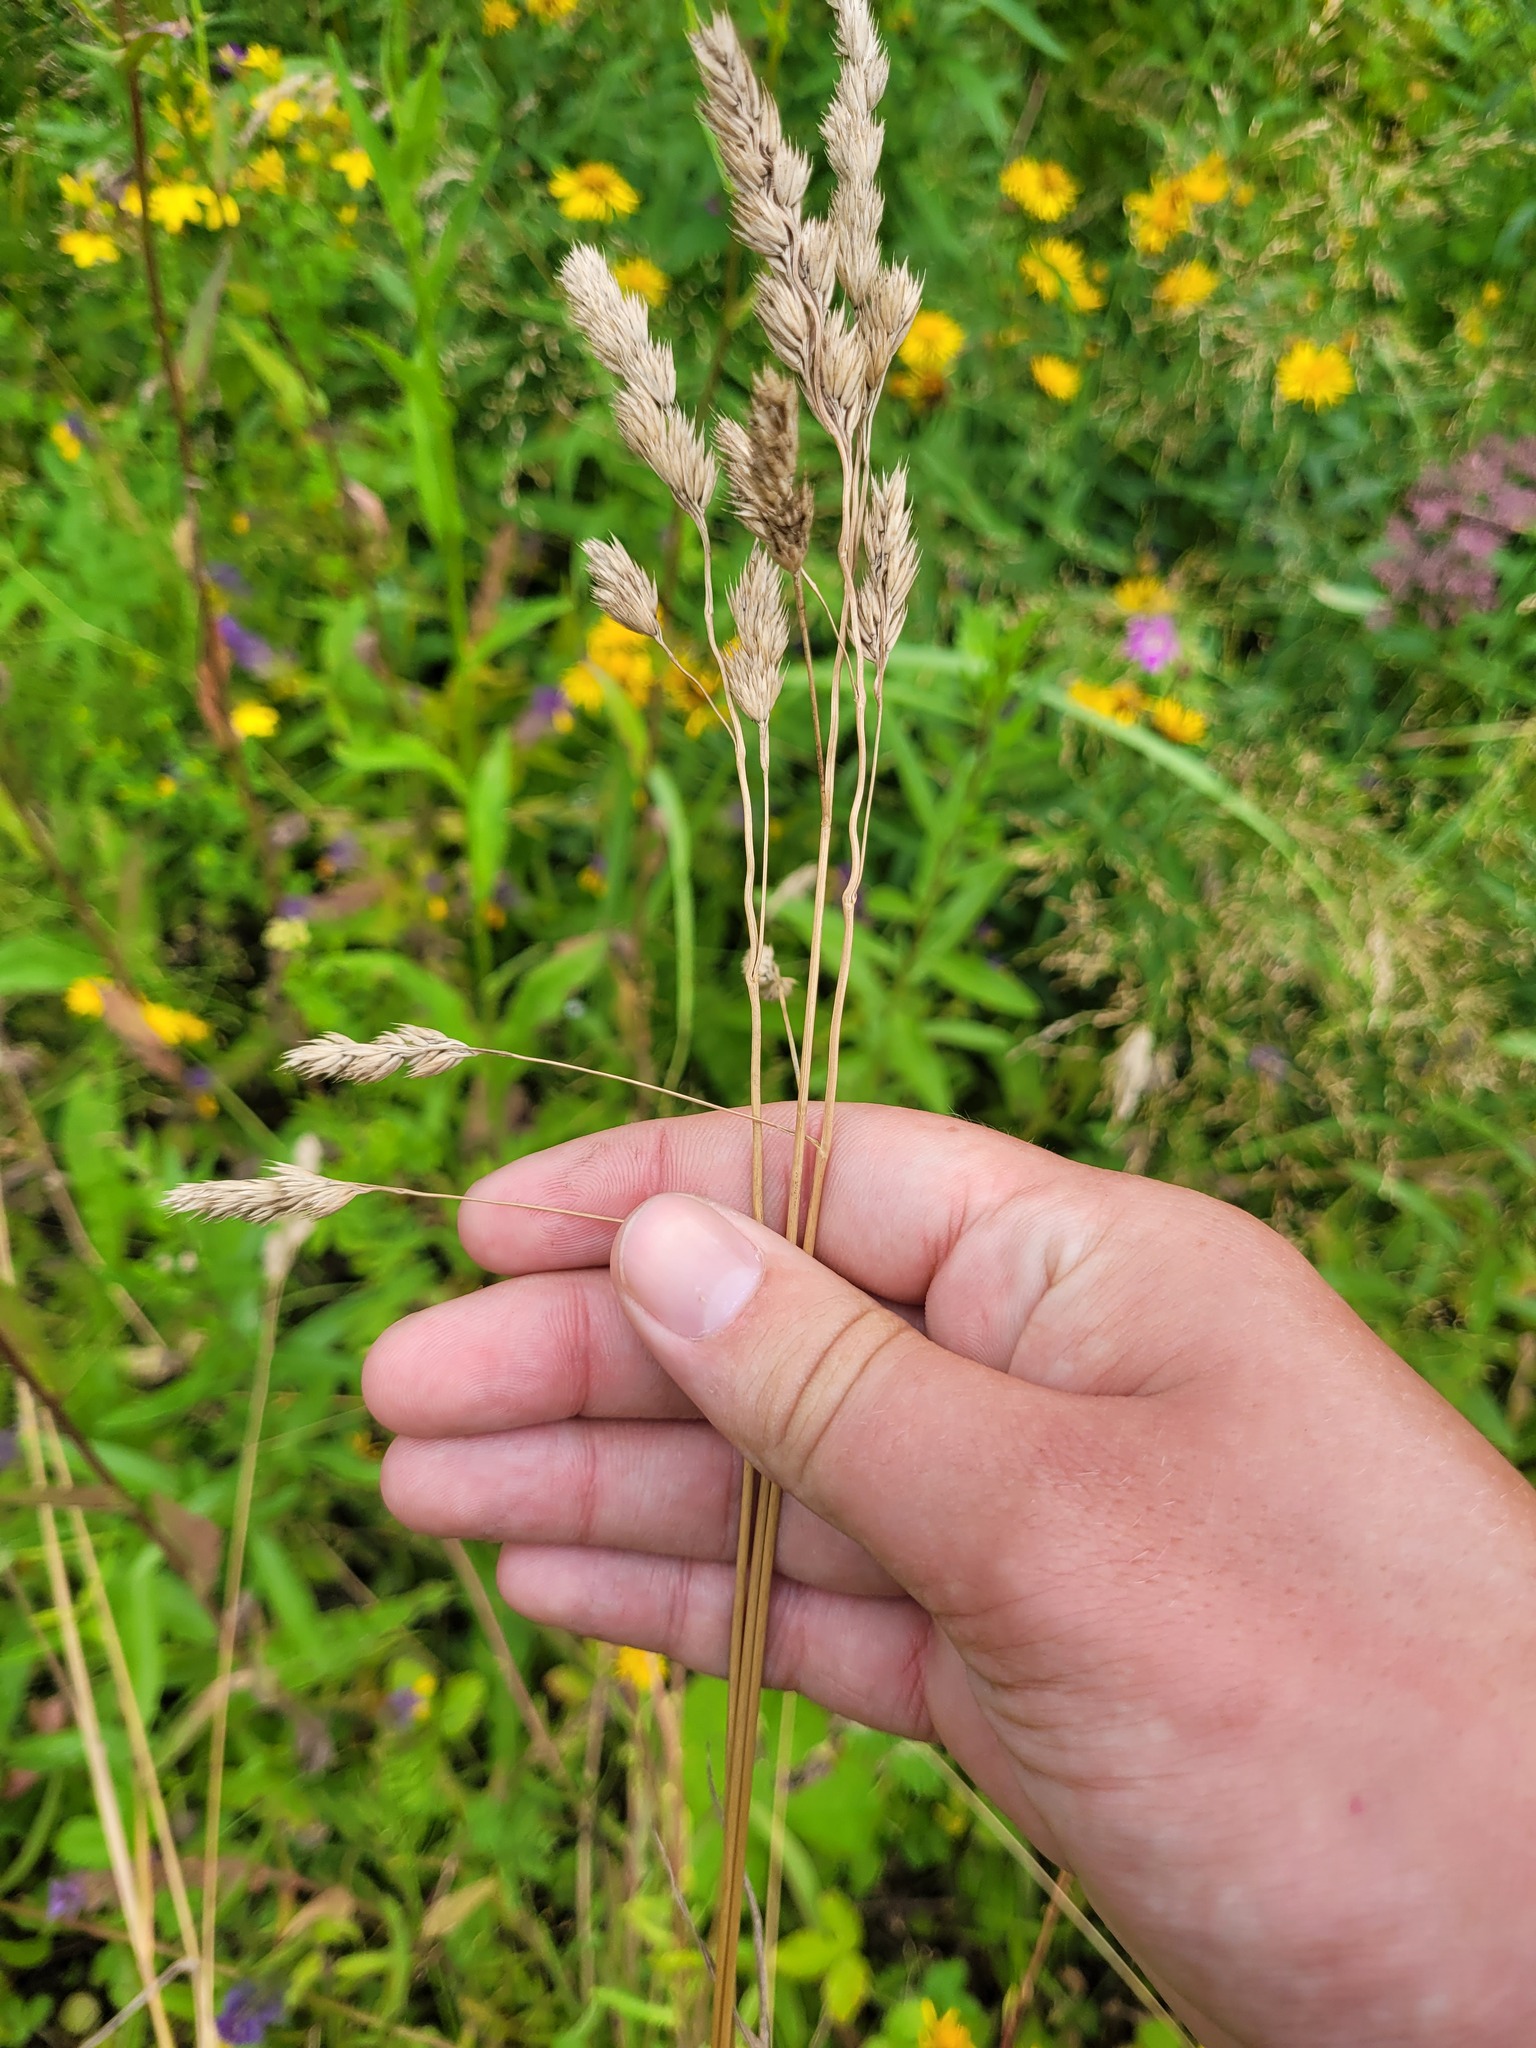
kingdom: Plantae
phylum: Tracheophyta
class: Liliopsida
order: Poales
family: Poaceae
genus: Dactylis
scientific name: Dactylis glomerata
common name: Orchardgrass
